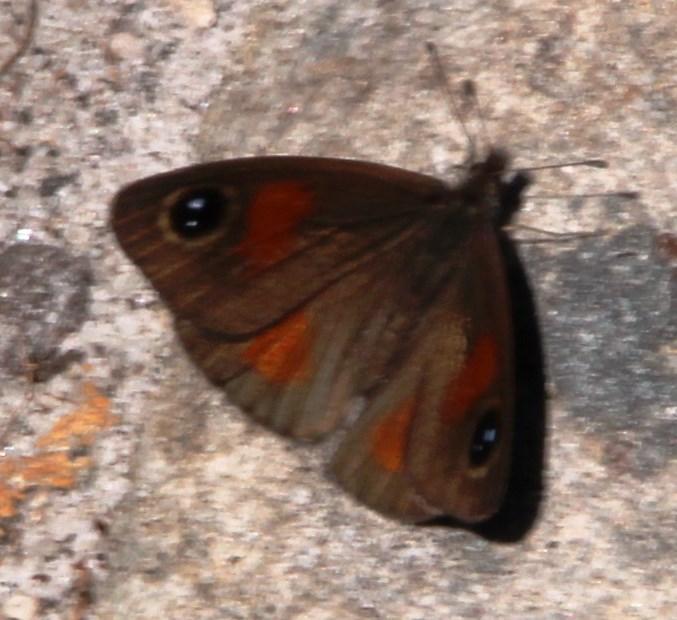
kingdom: Animalia
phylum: Arthropoda
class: Insecta
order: Lepidoptera
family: Nymphalidae
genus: Stygionympha
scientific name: Stygionympha vigilans
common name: Western hillside brown
